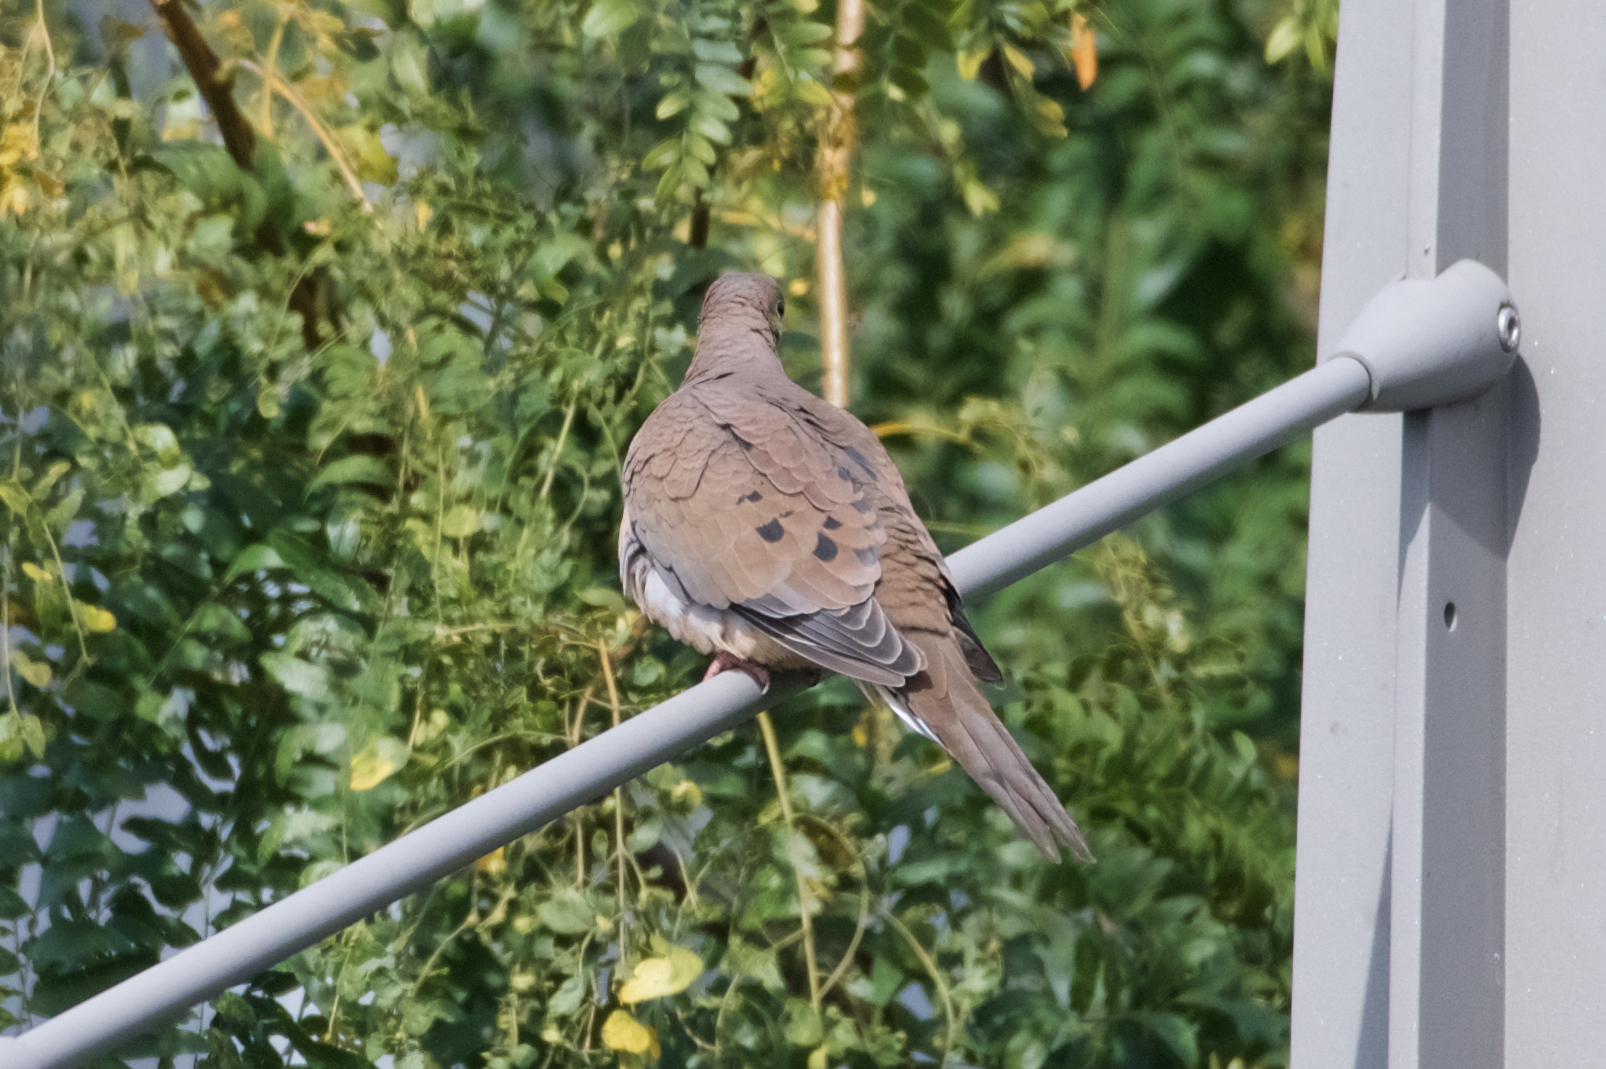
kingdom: Animalia
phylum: Chordata
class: Aves
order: Columbiformes
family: Columbidae
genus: Zenaida
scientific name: Zenaida macroura
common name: Mourning dove
